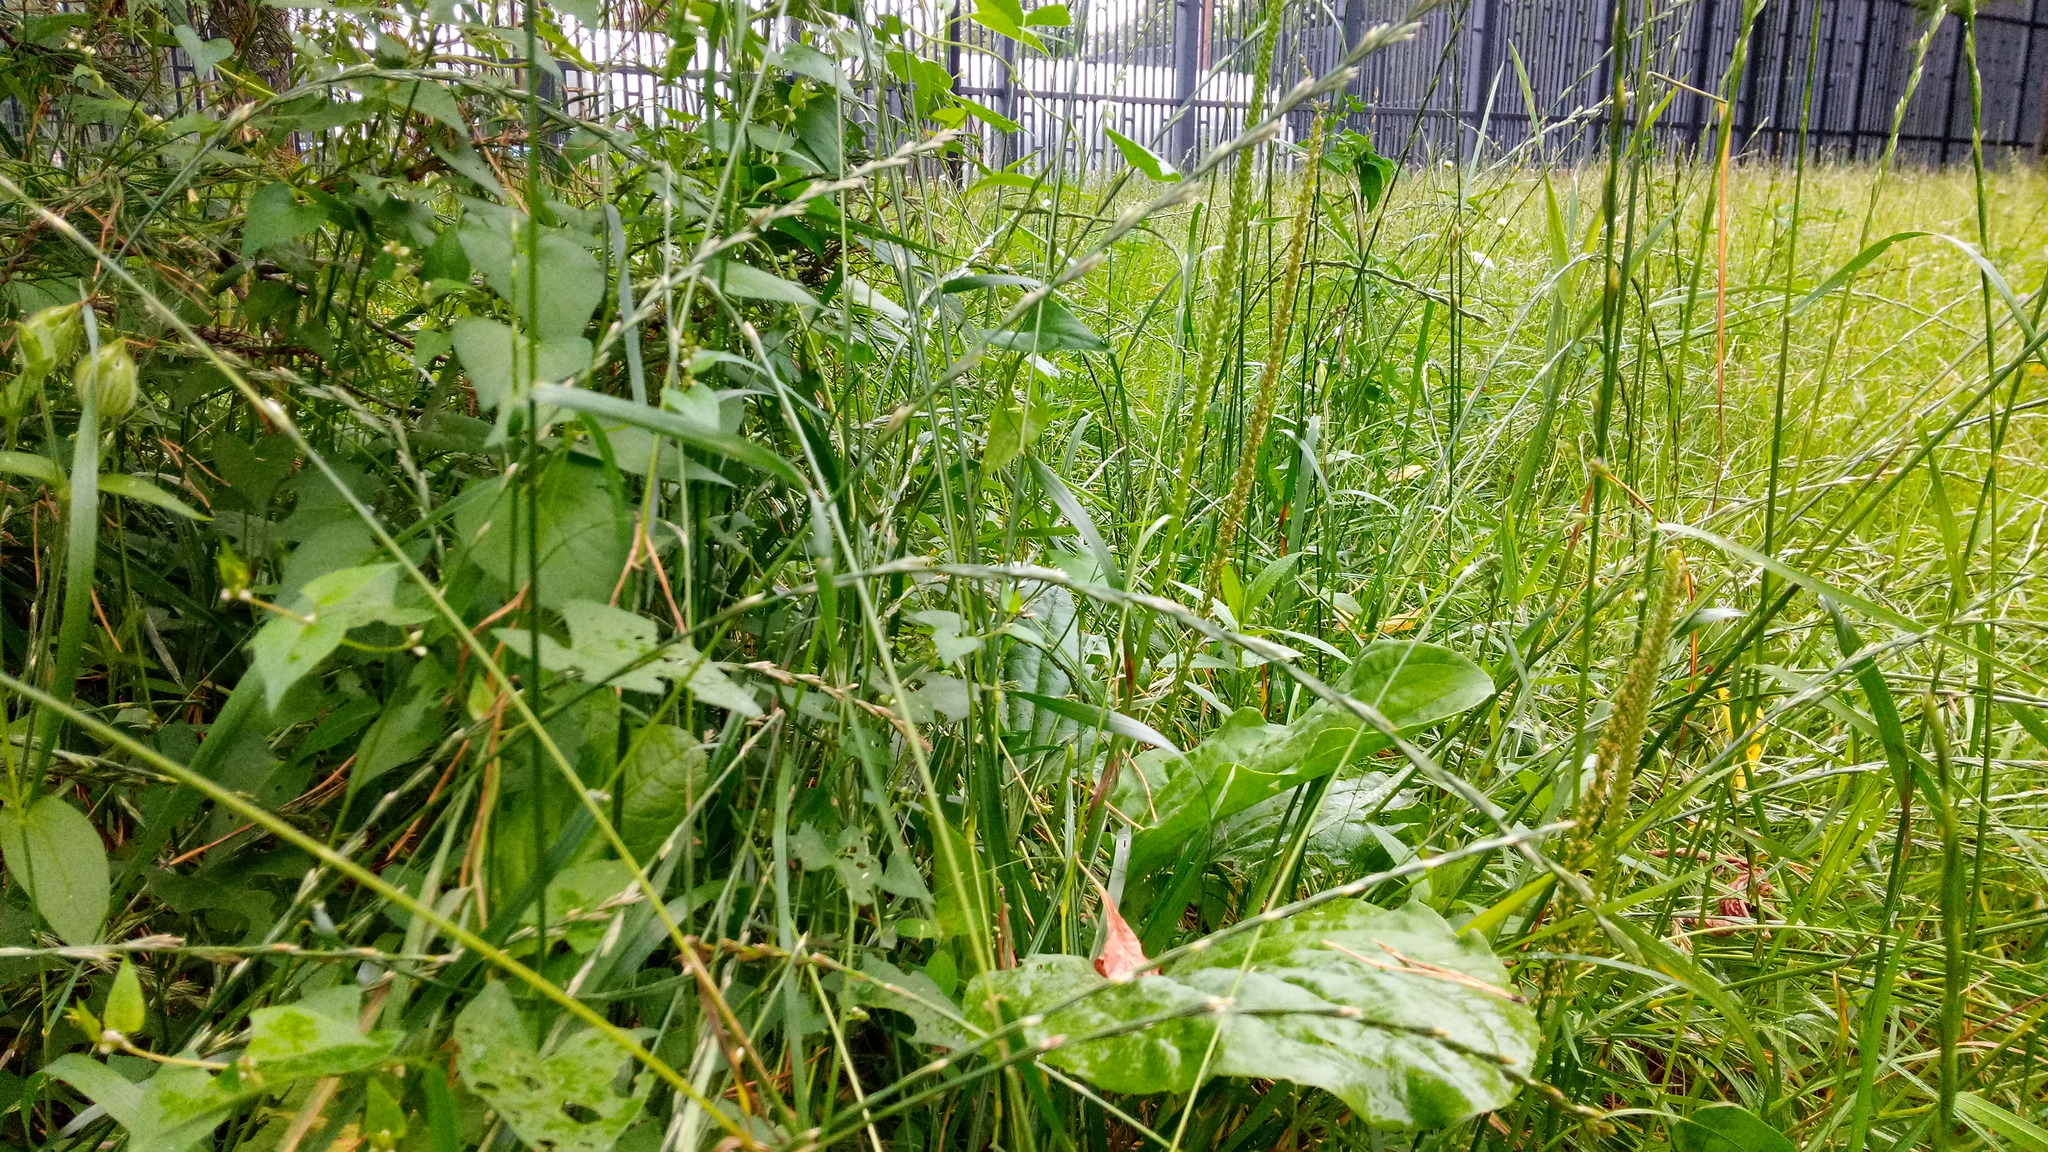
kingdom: Plantae
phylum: Tracheophyta
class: Magnoliopsida
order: Lamiales
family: Plantaginaceae
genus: Plantago
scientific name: Plantago major
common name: Common plantain
